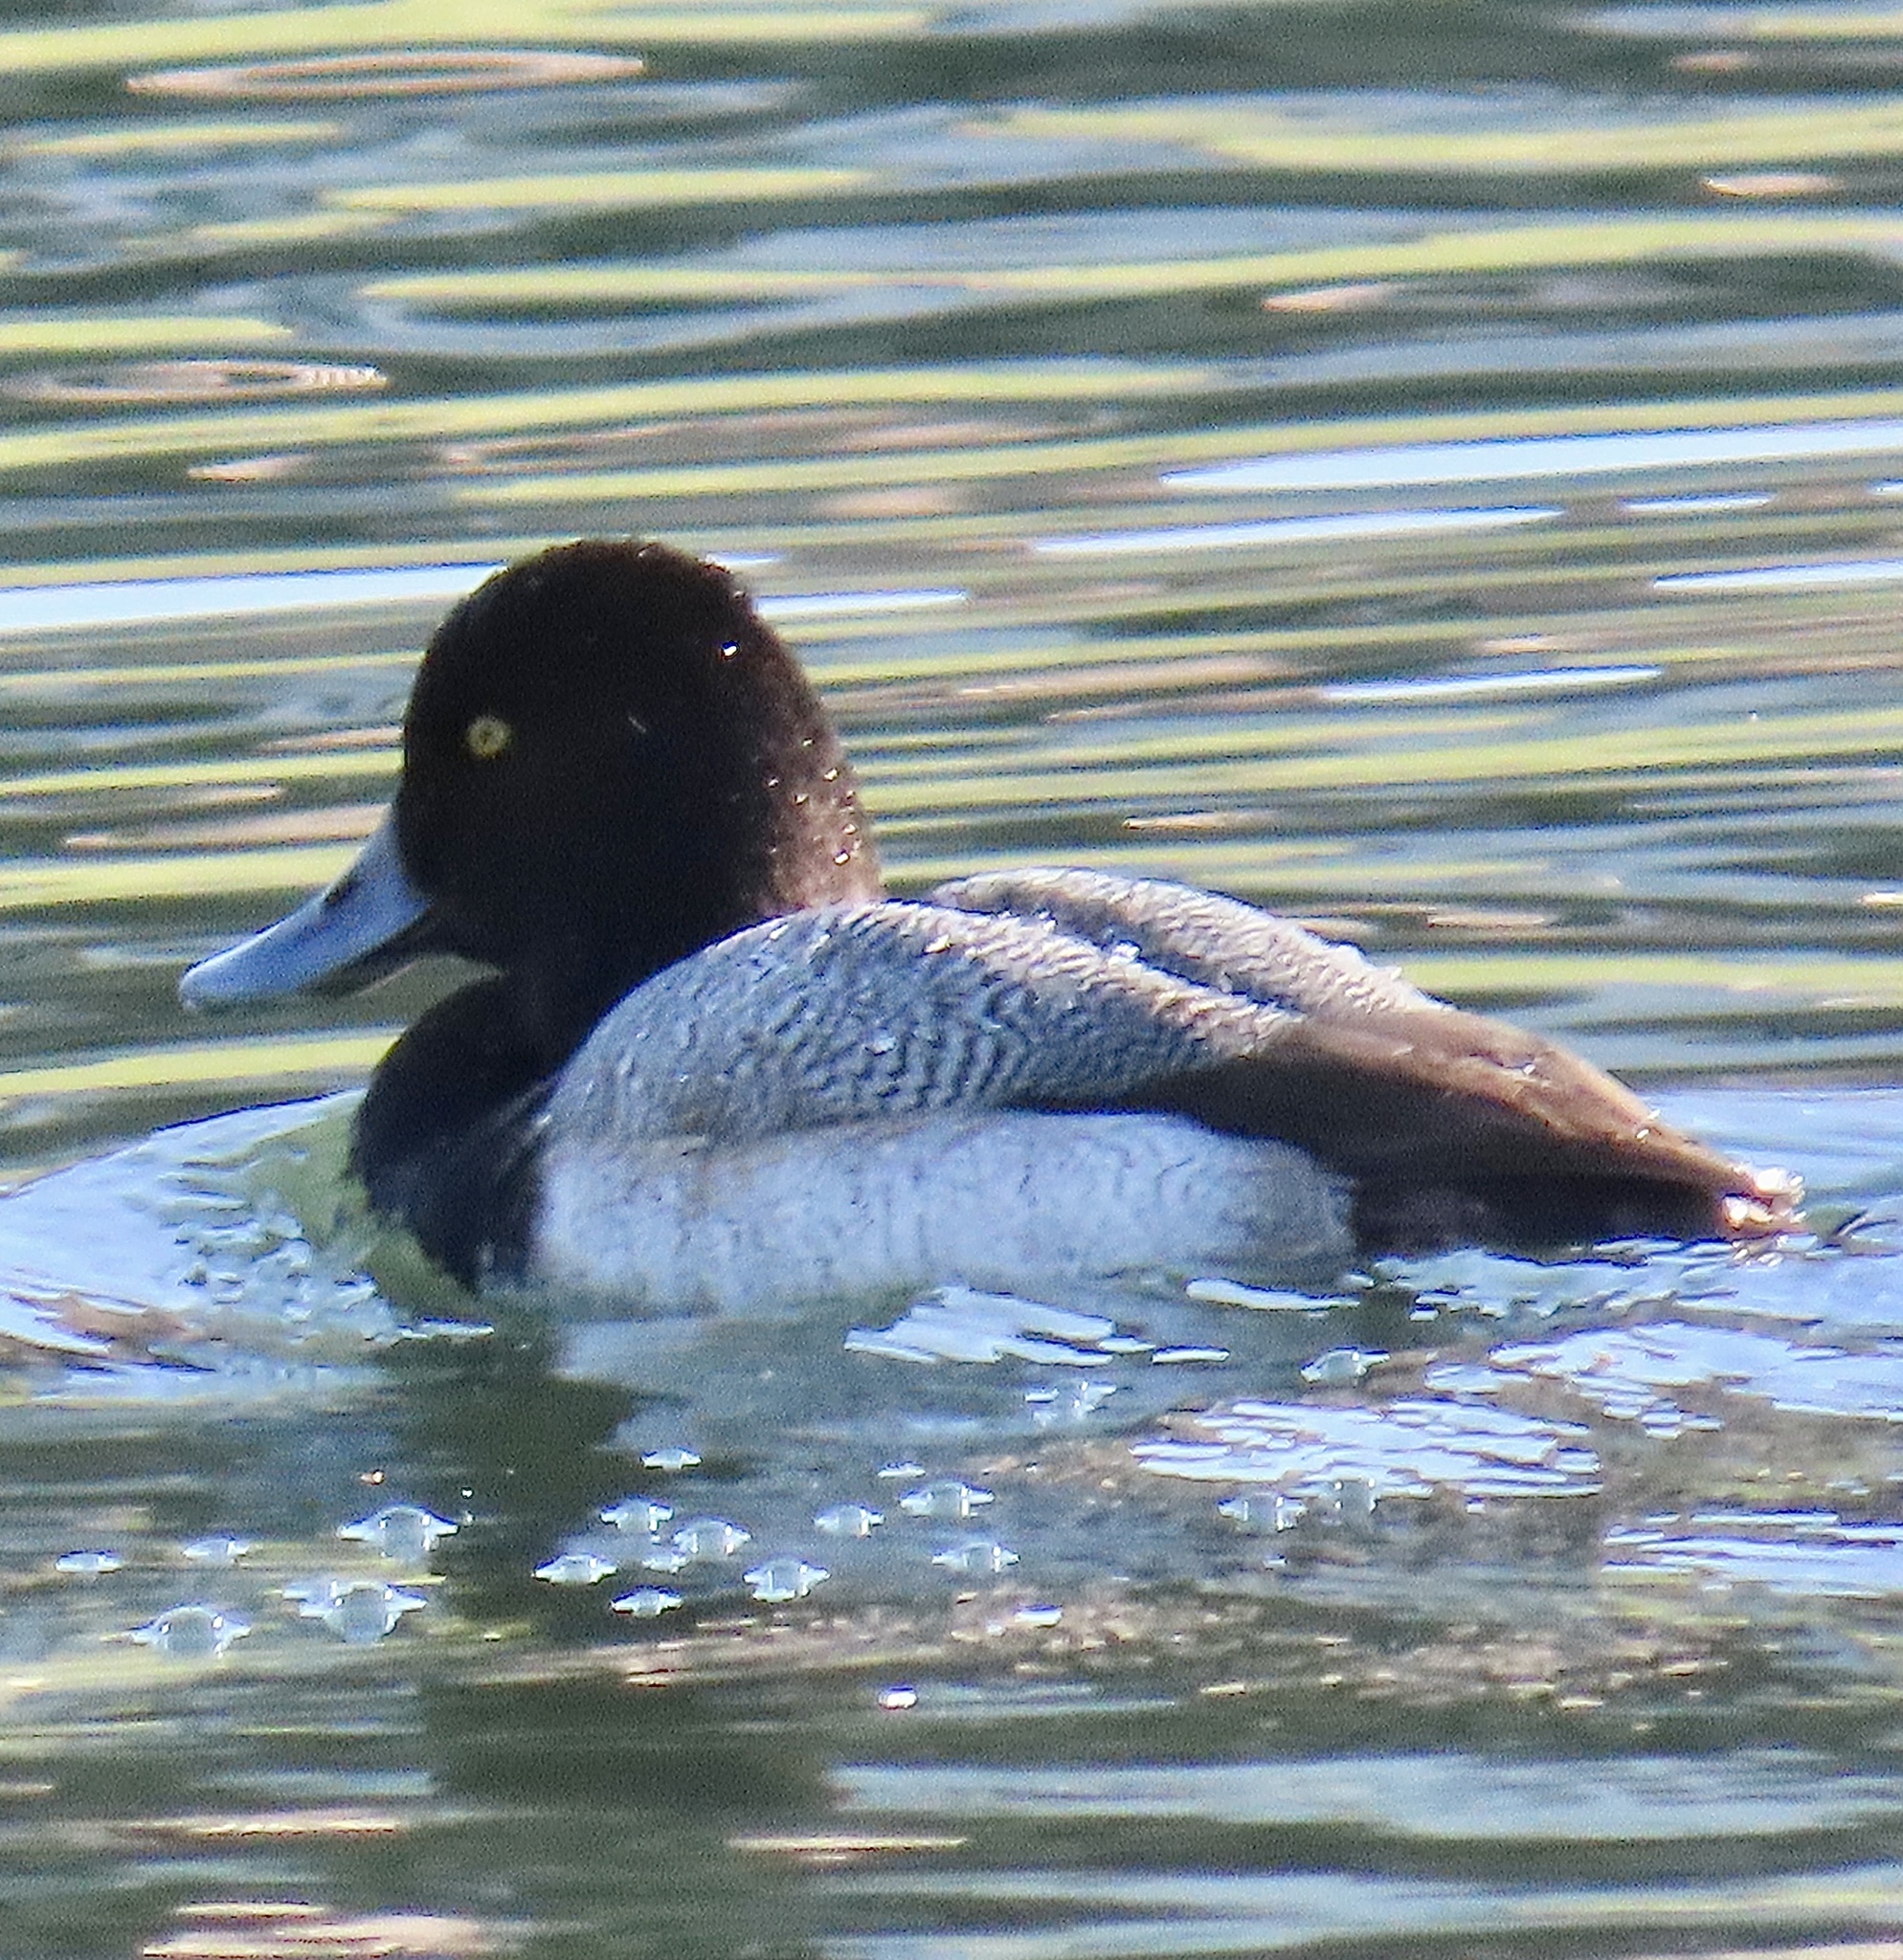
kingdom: Animalia
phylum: Chordata
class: Aves
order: Anseriformes
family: Anatidae
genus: Aythya
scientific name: Aythya affinis
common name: Lesser scaup
